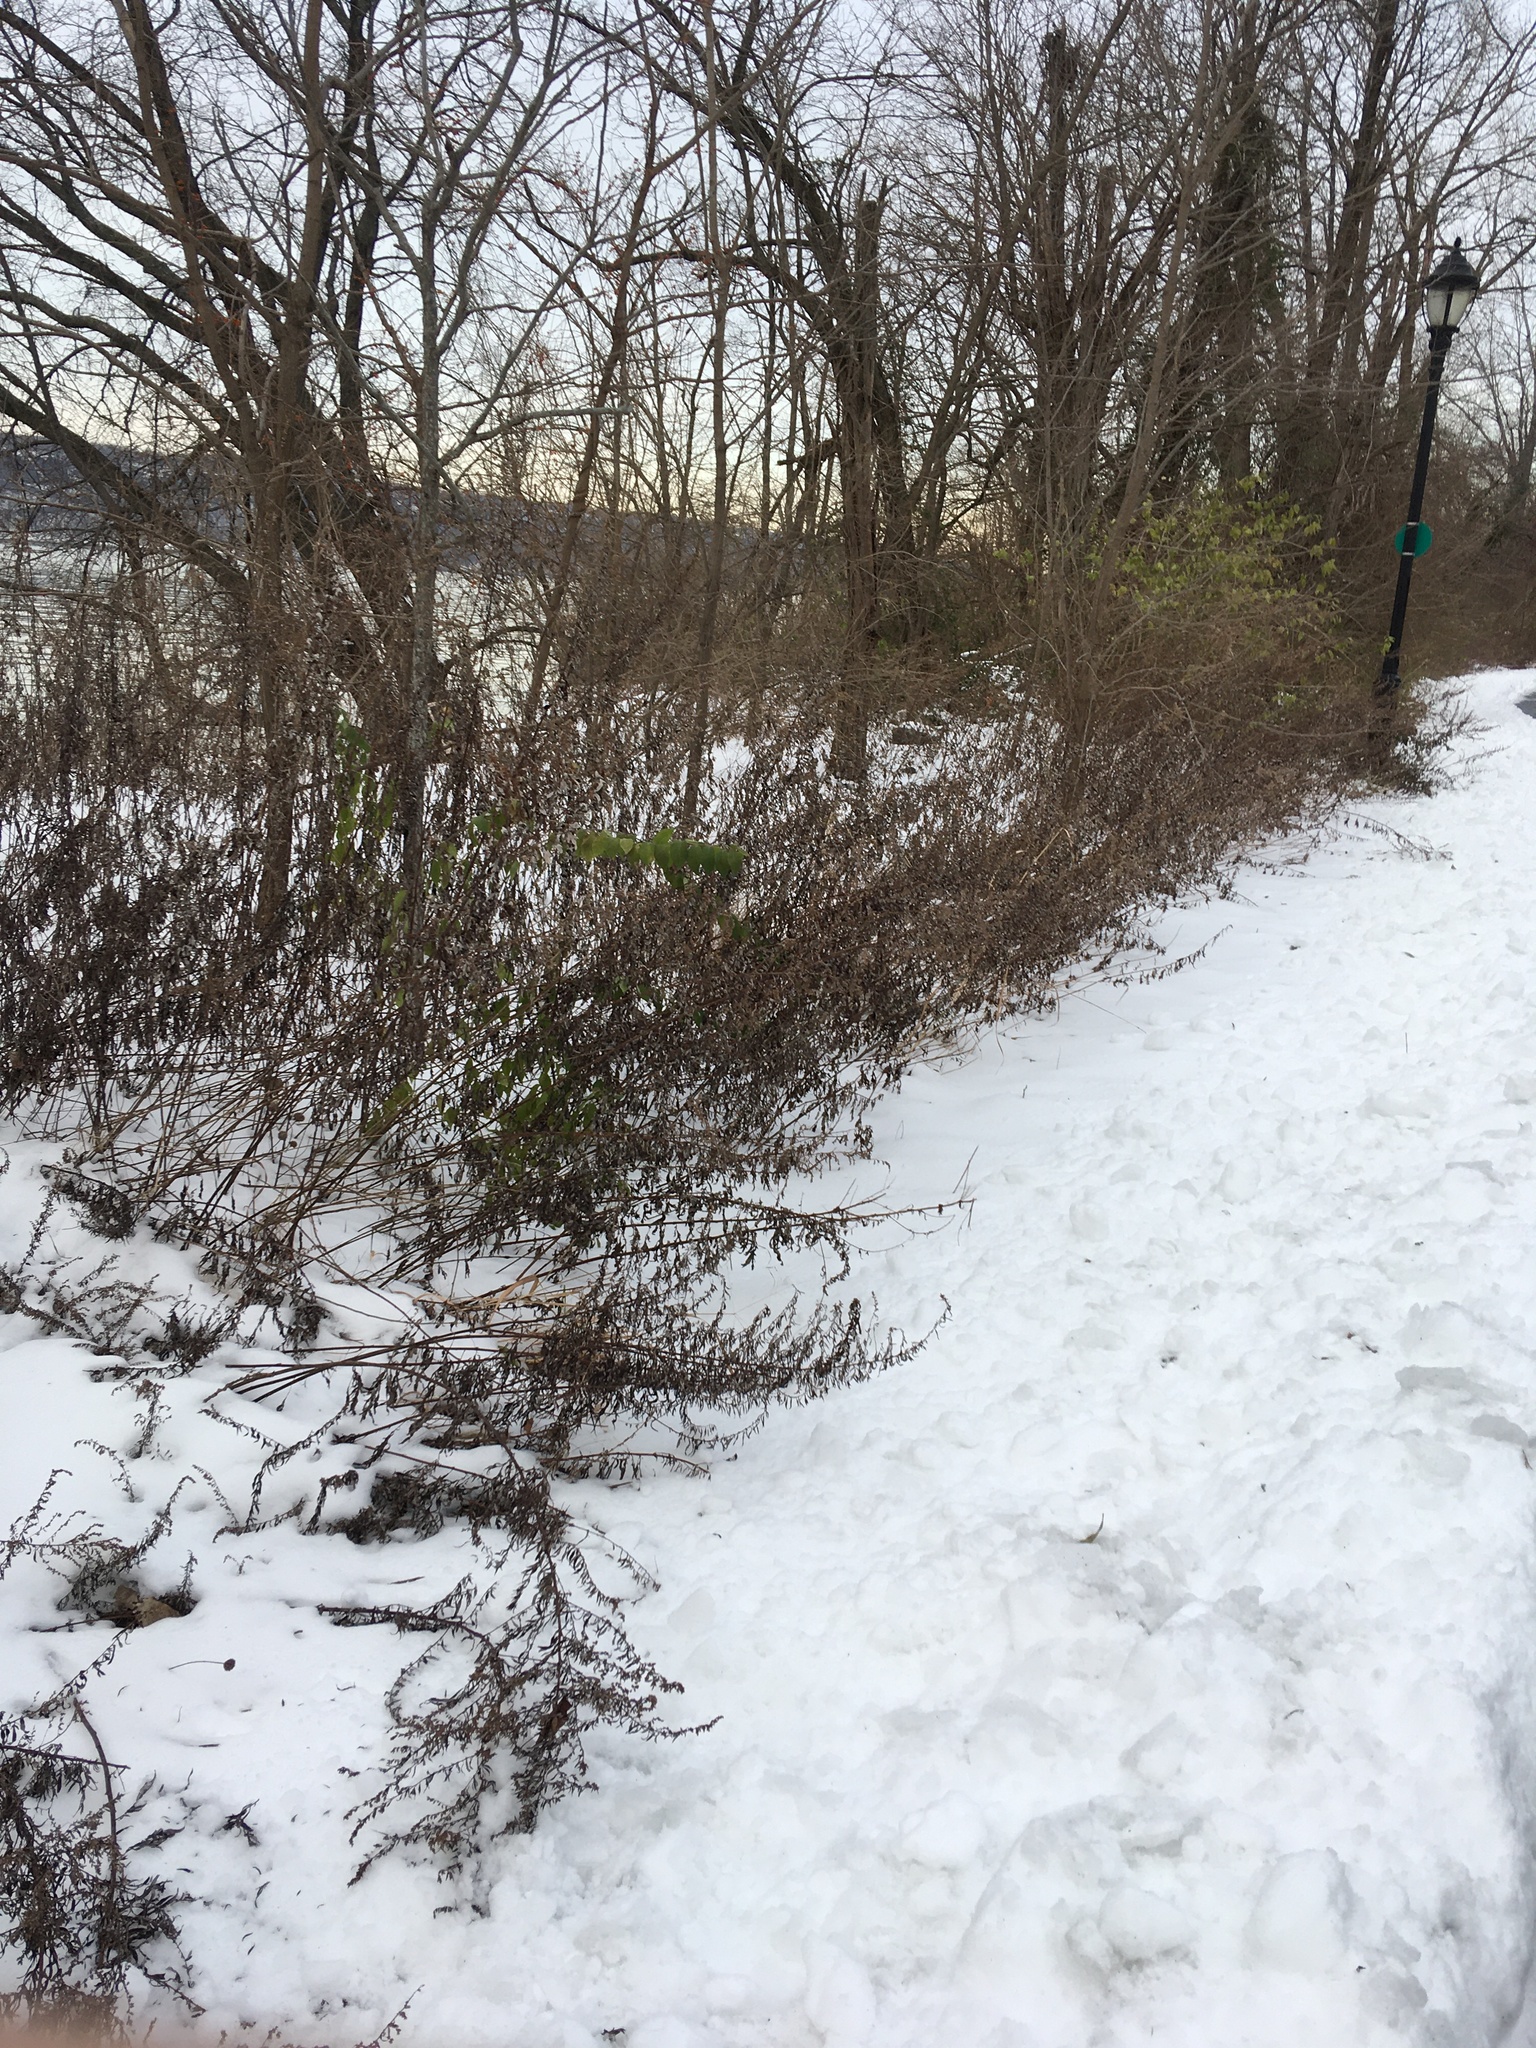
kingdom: Plantae
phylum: Tracheophyta
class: Magnoliopsida
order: Asterales
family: Asteraceae
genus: Artemisia
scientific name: Artemisia vulgaris
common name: Mugwort
